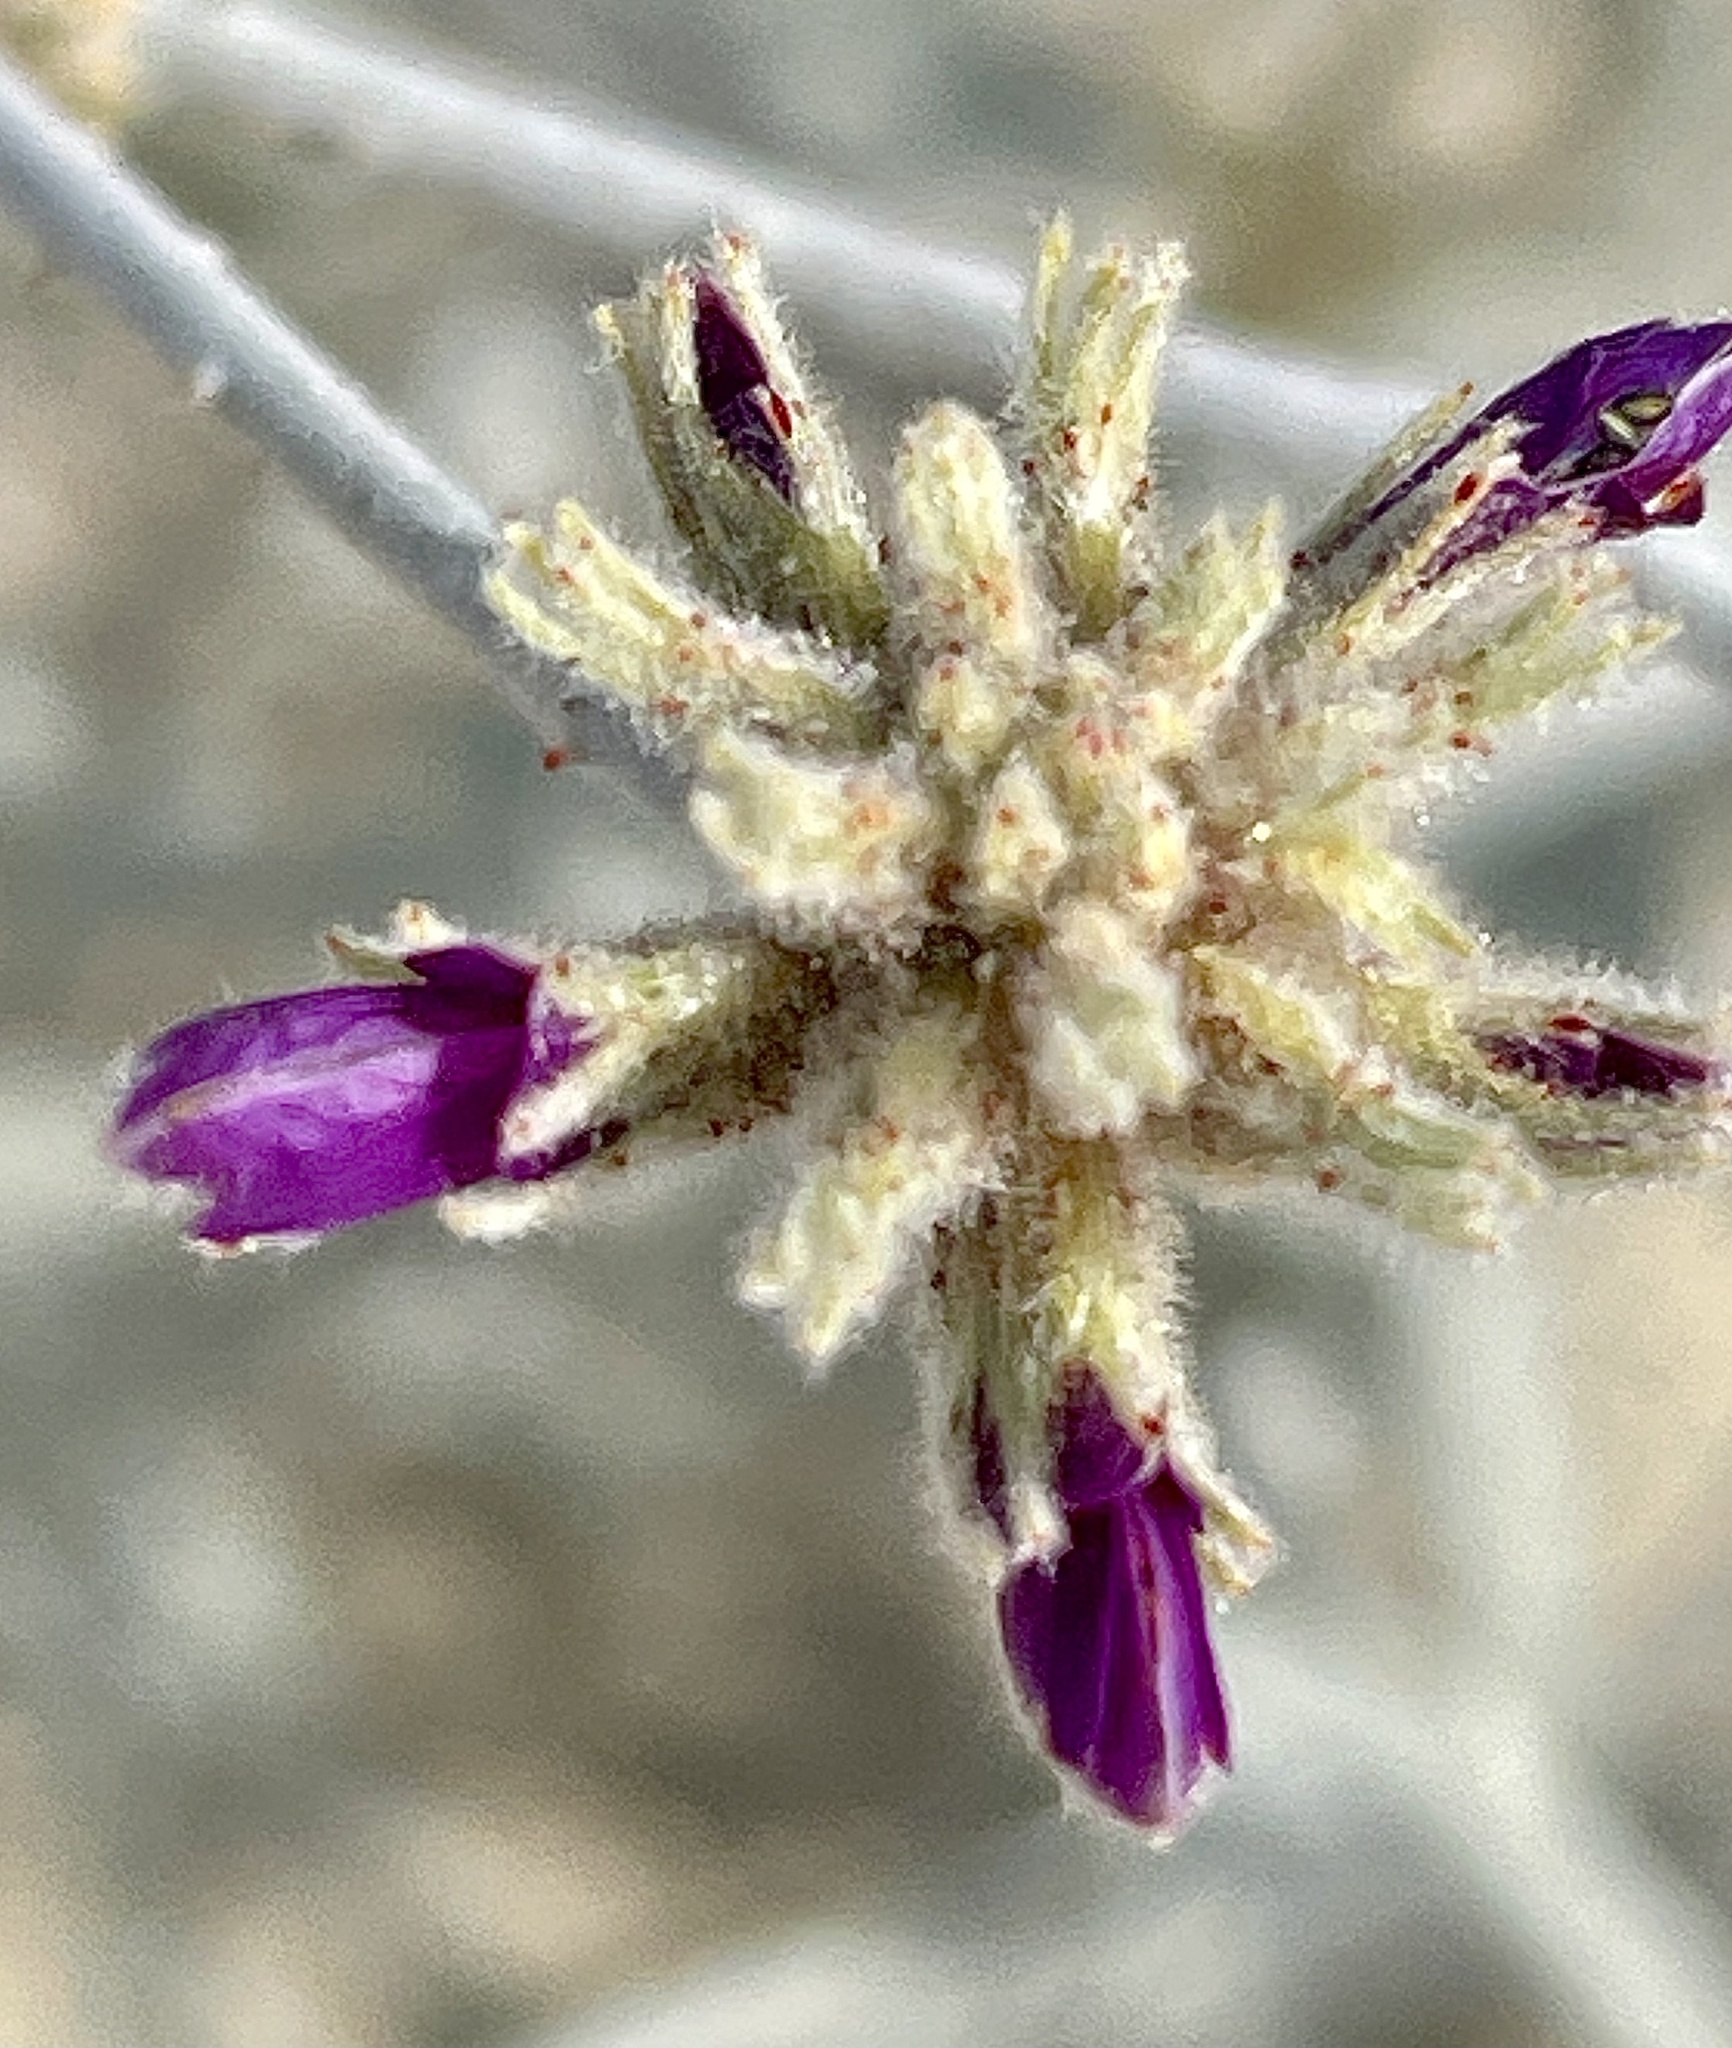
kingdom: Plantae
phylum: Tracheophyta
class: Magnoliopsida
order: Fabales
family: Fabaceae
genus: Psorothamnus
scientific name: Psorothamnus emoryi
